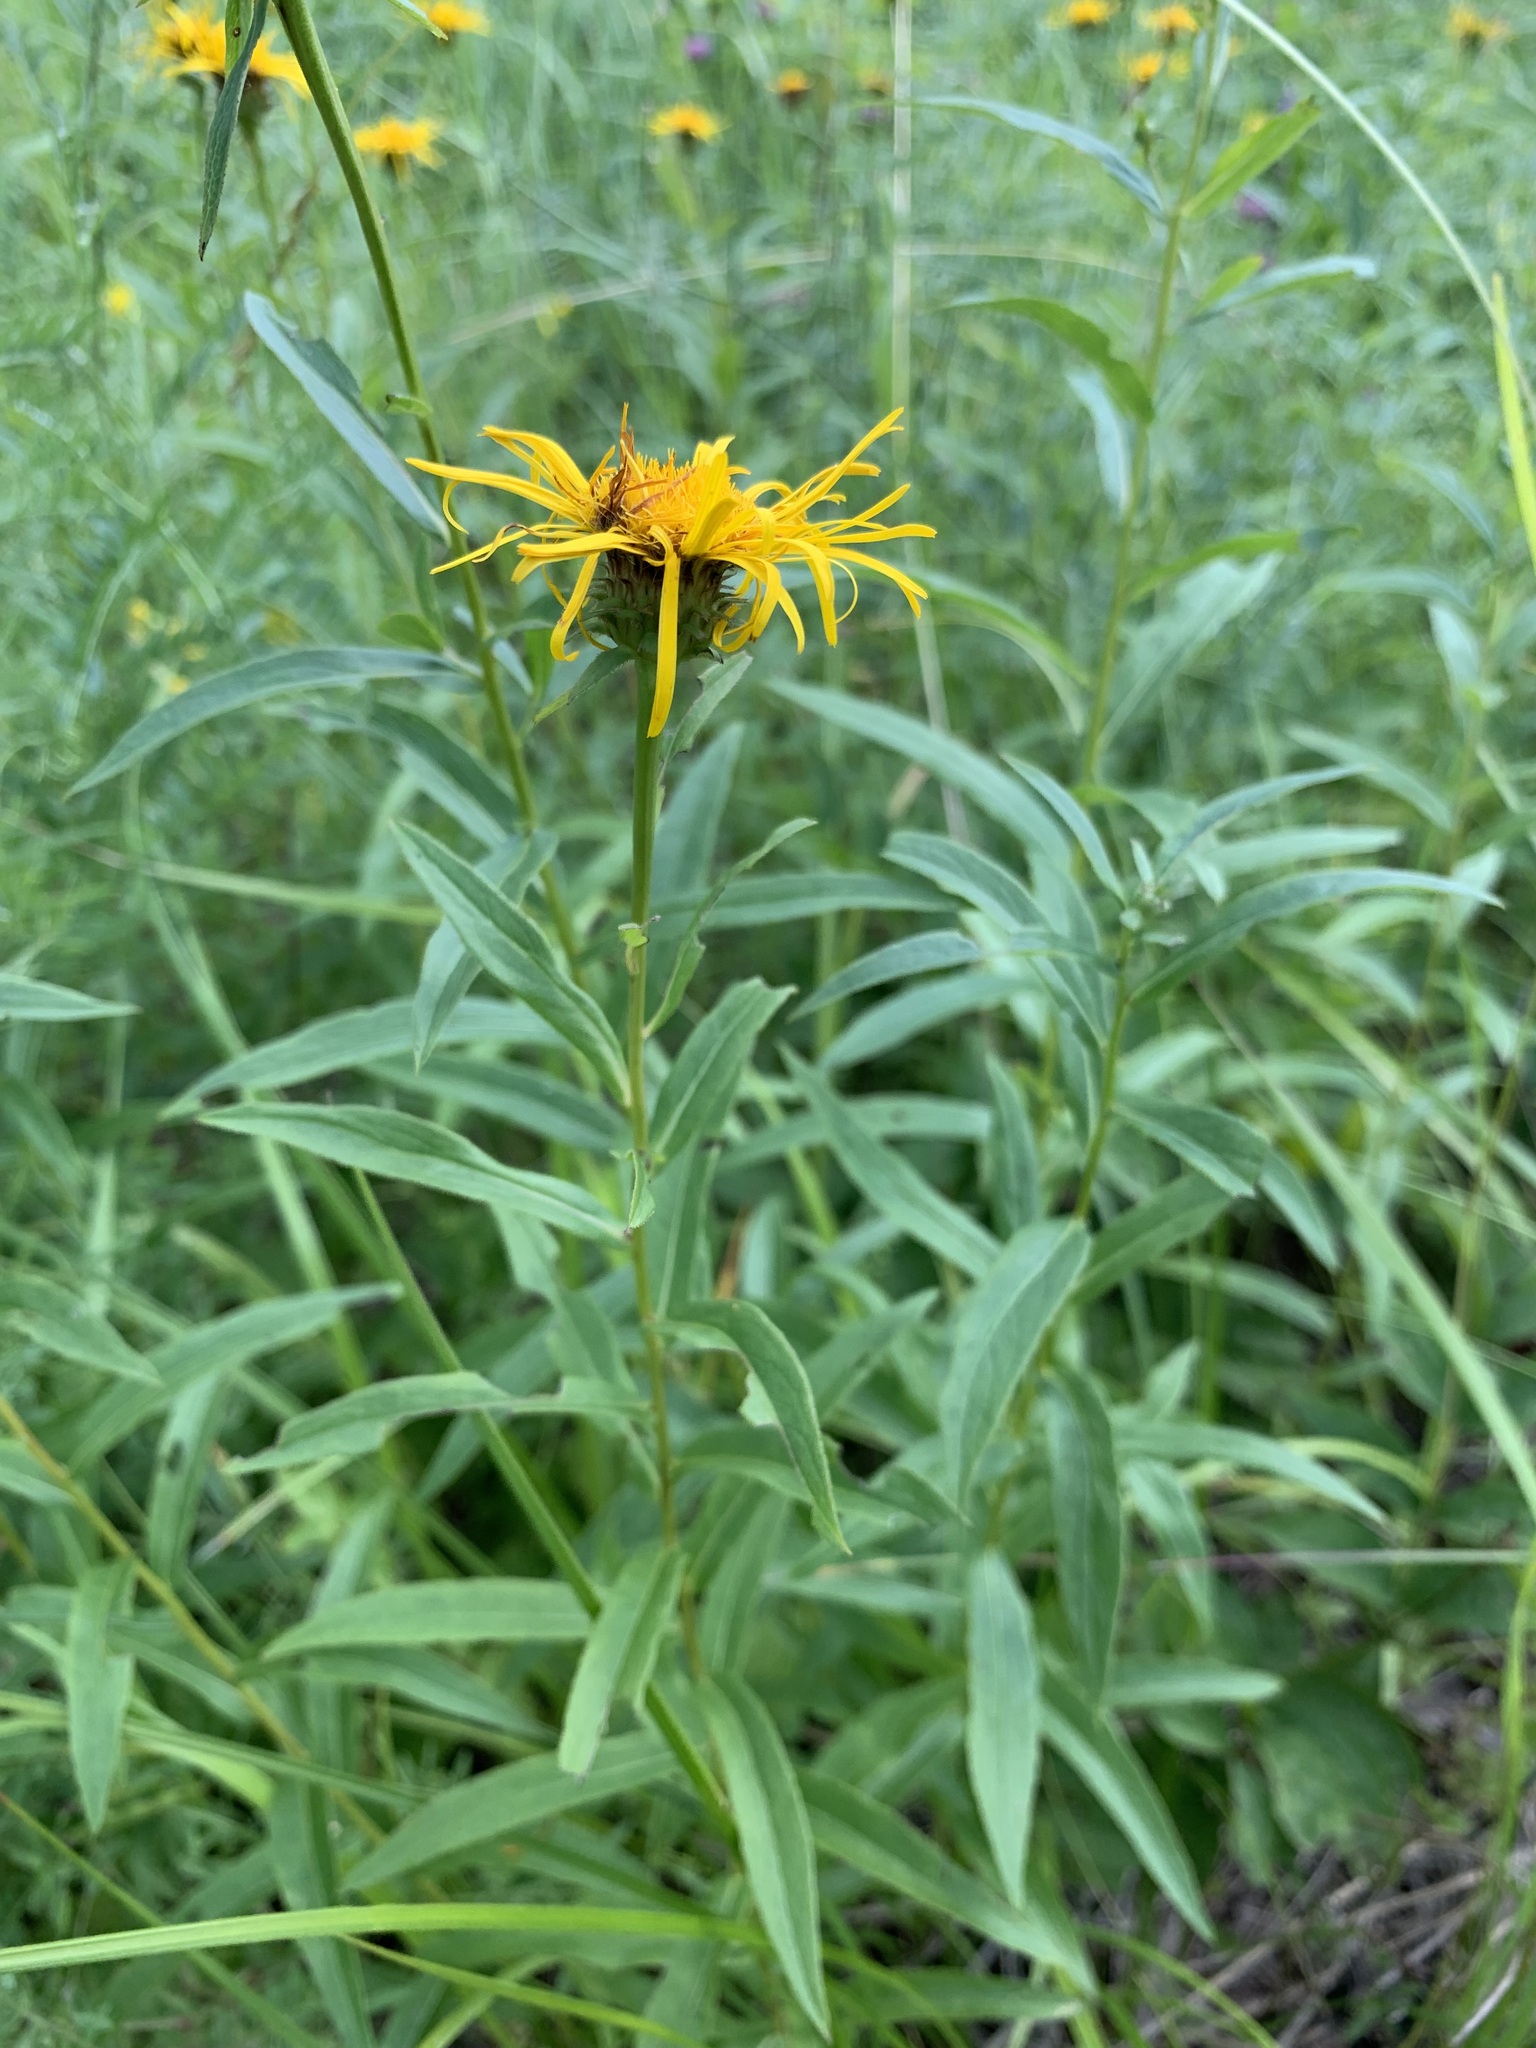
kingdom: Plantae
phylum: Tracheophyta
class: Magnoliopsida
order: Asterales
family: Asteraceae
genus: Pentanema
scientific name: Pentanema salicinum
